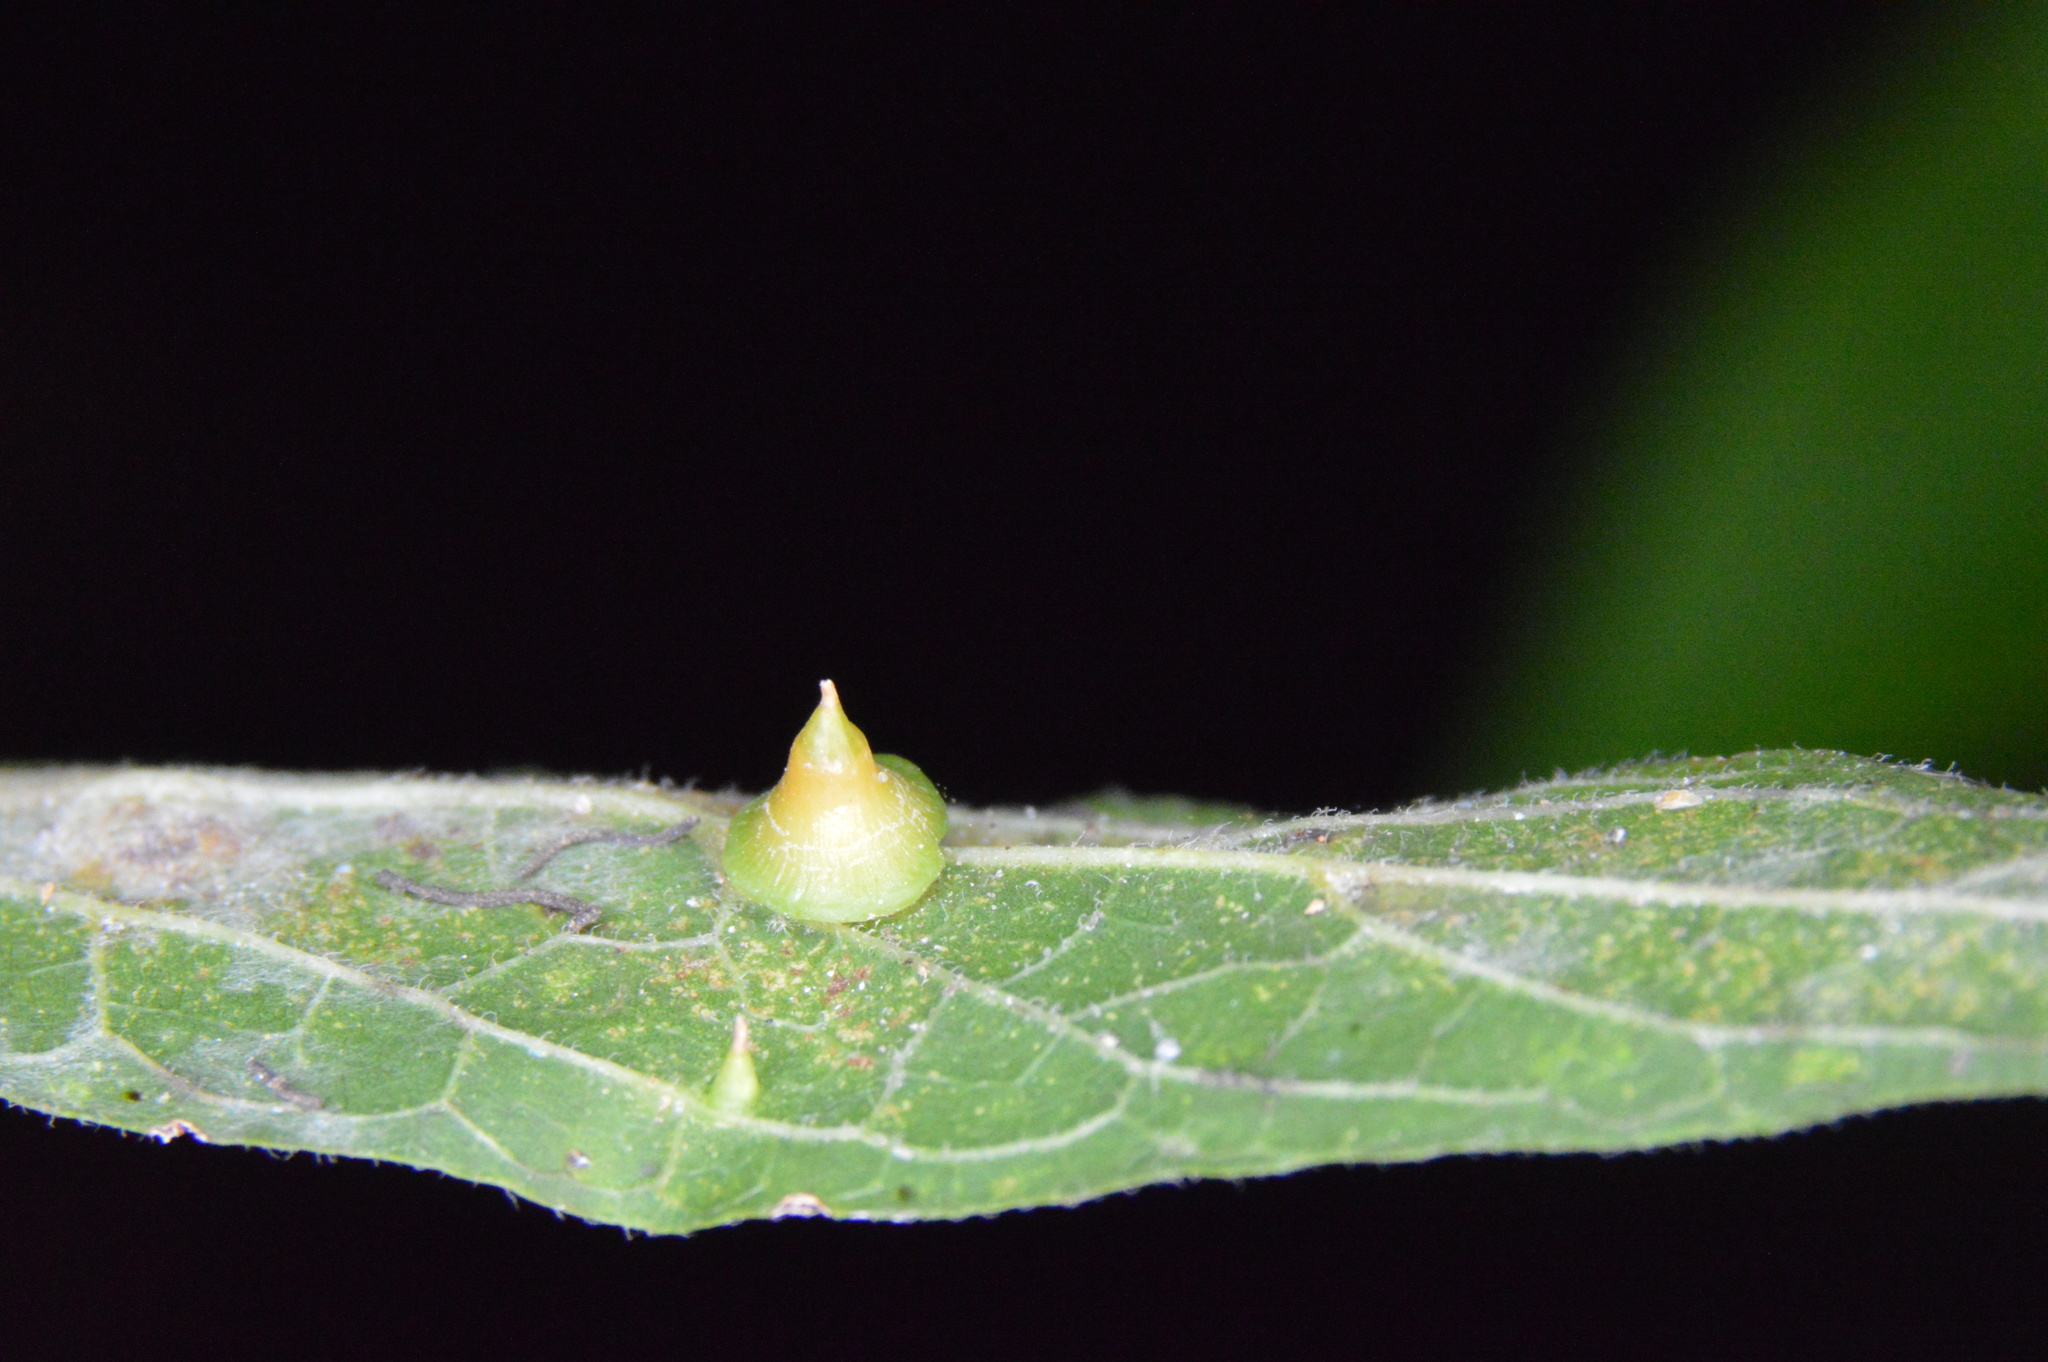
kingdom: Animalia
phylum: Arthropoda
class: Insecta
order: Diptera
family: Cecidomyiidae
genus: Celticecis
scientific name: Celticecis spiniformis
